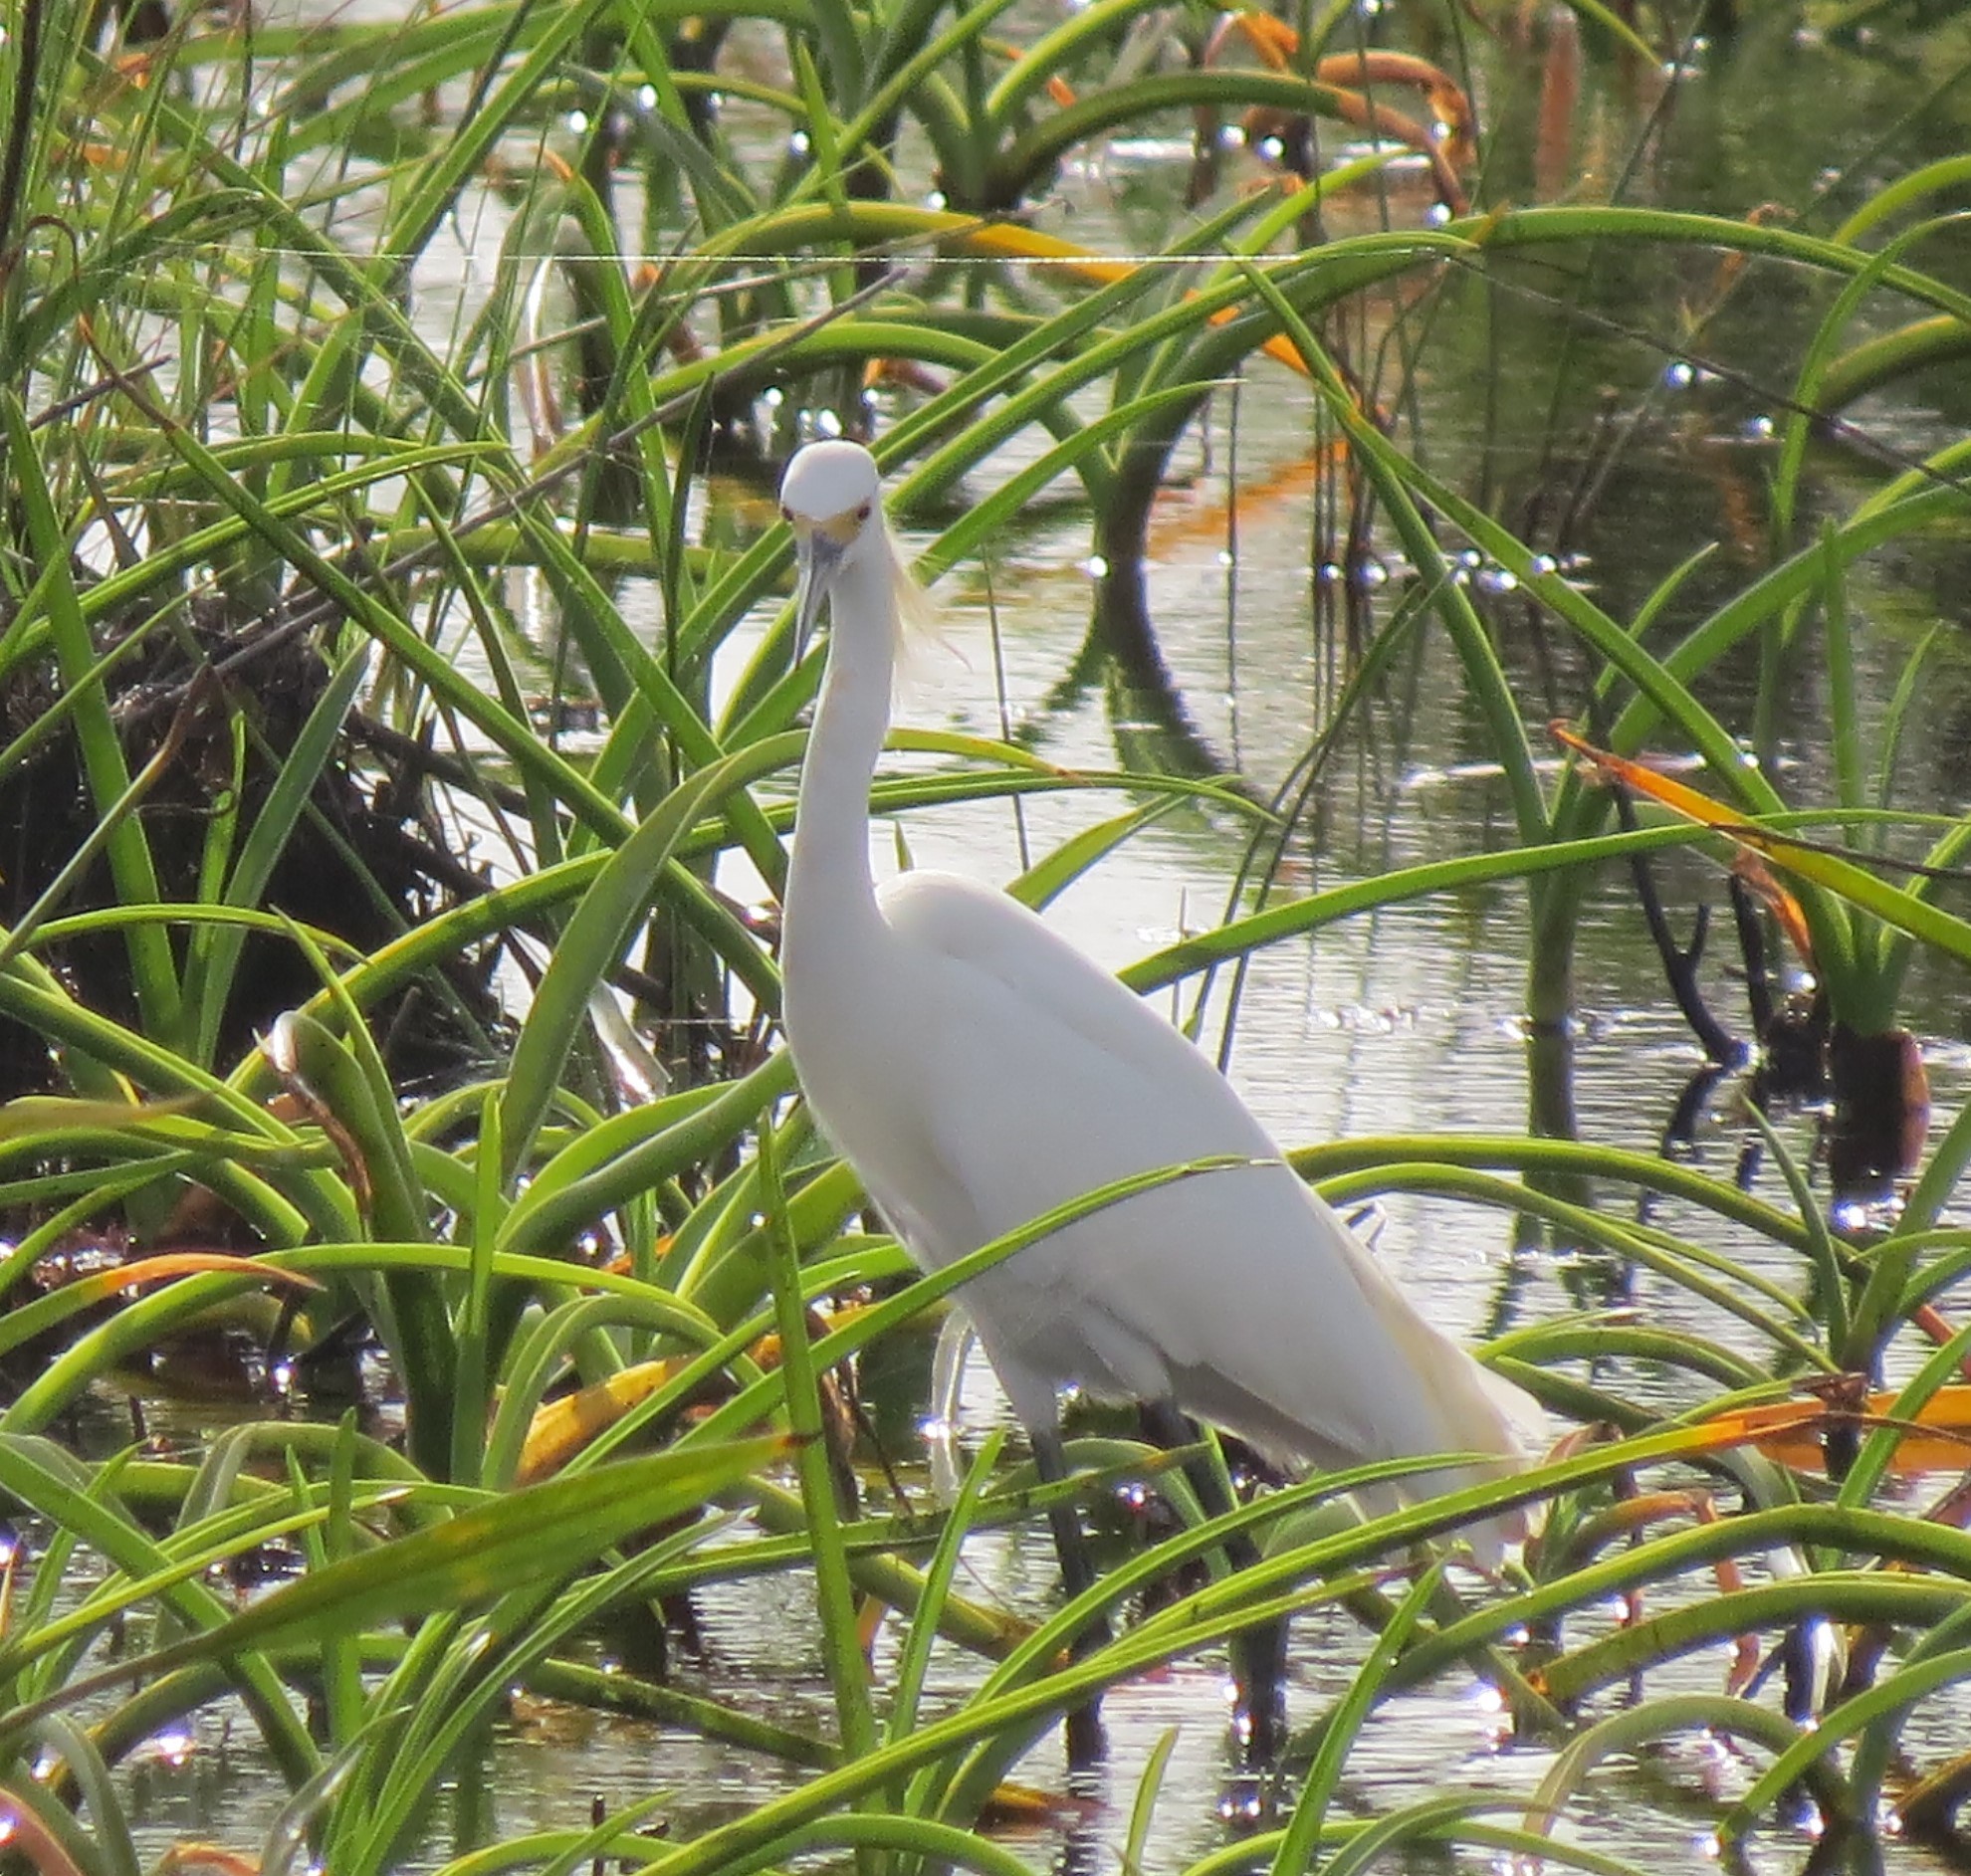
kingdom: Animalia
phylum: Chordata
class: Aves
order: Pelecaniformes
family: Ardeidae
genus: Egretta
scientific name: Egretta thula
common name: Snowy egret
